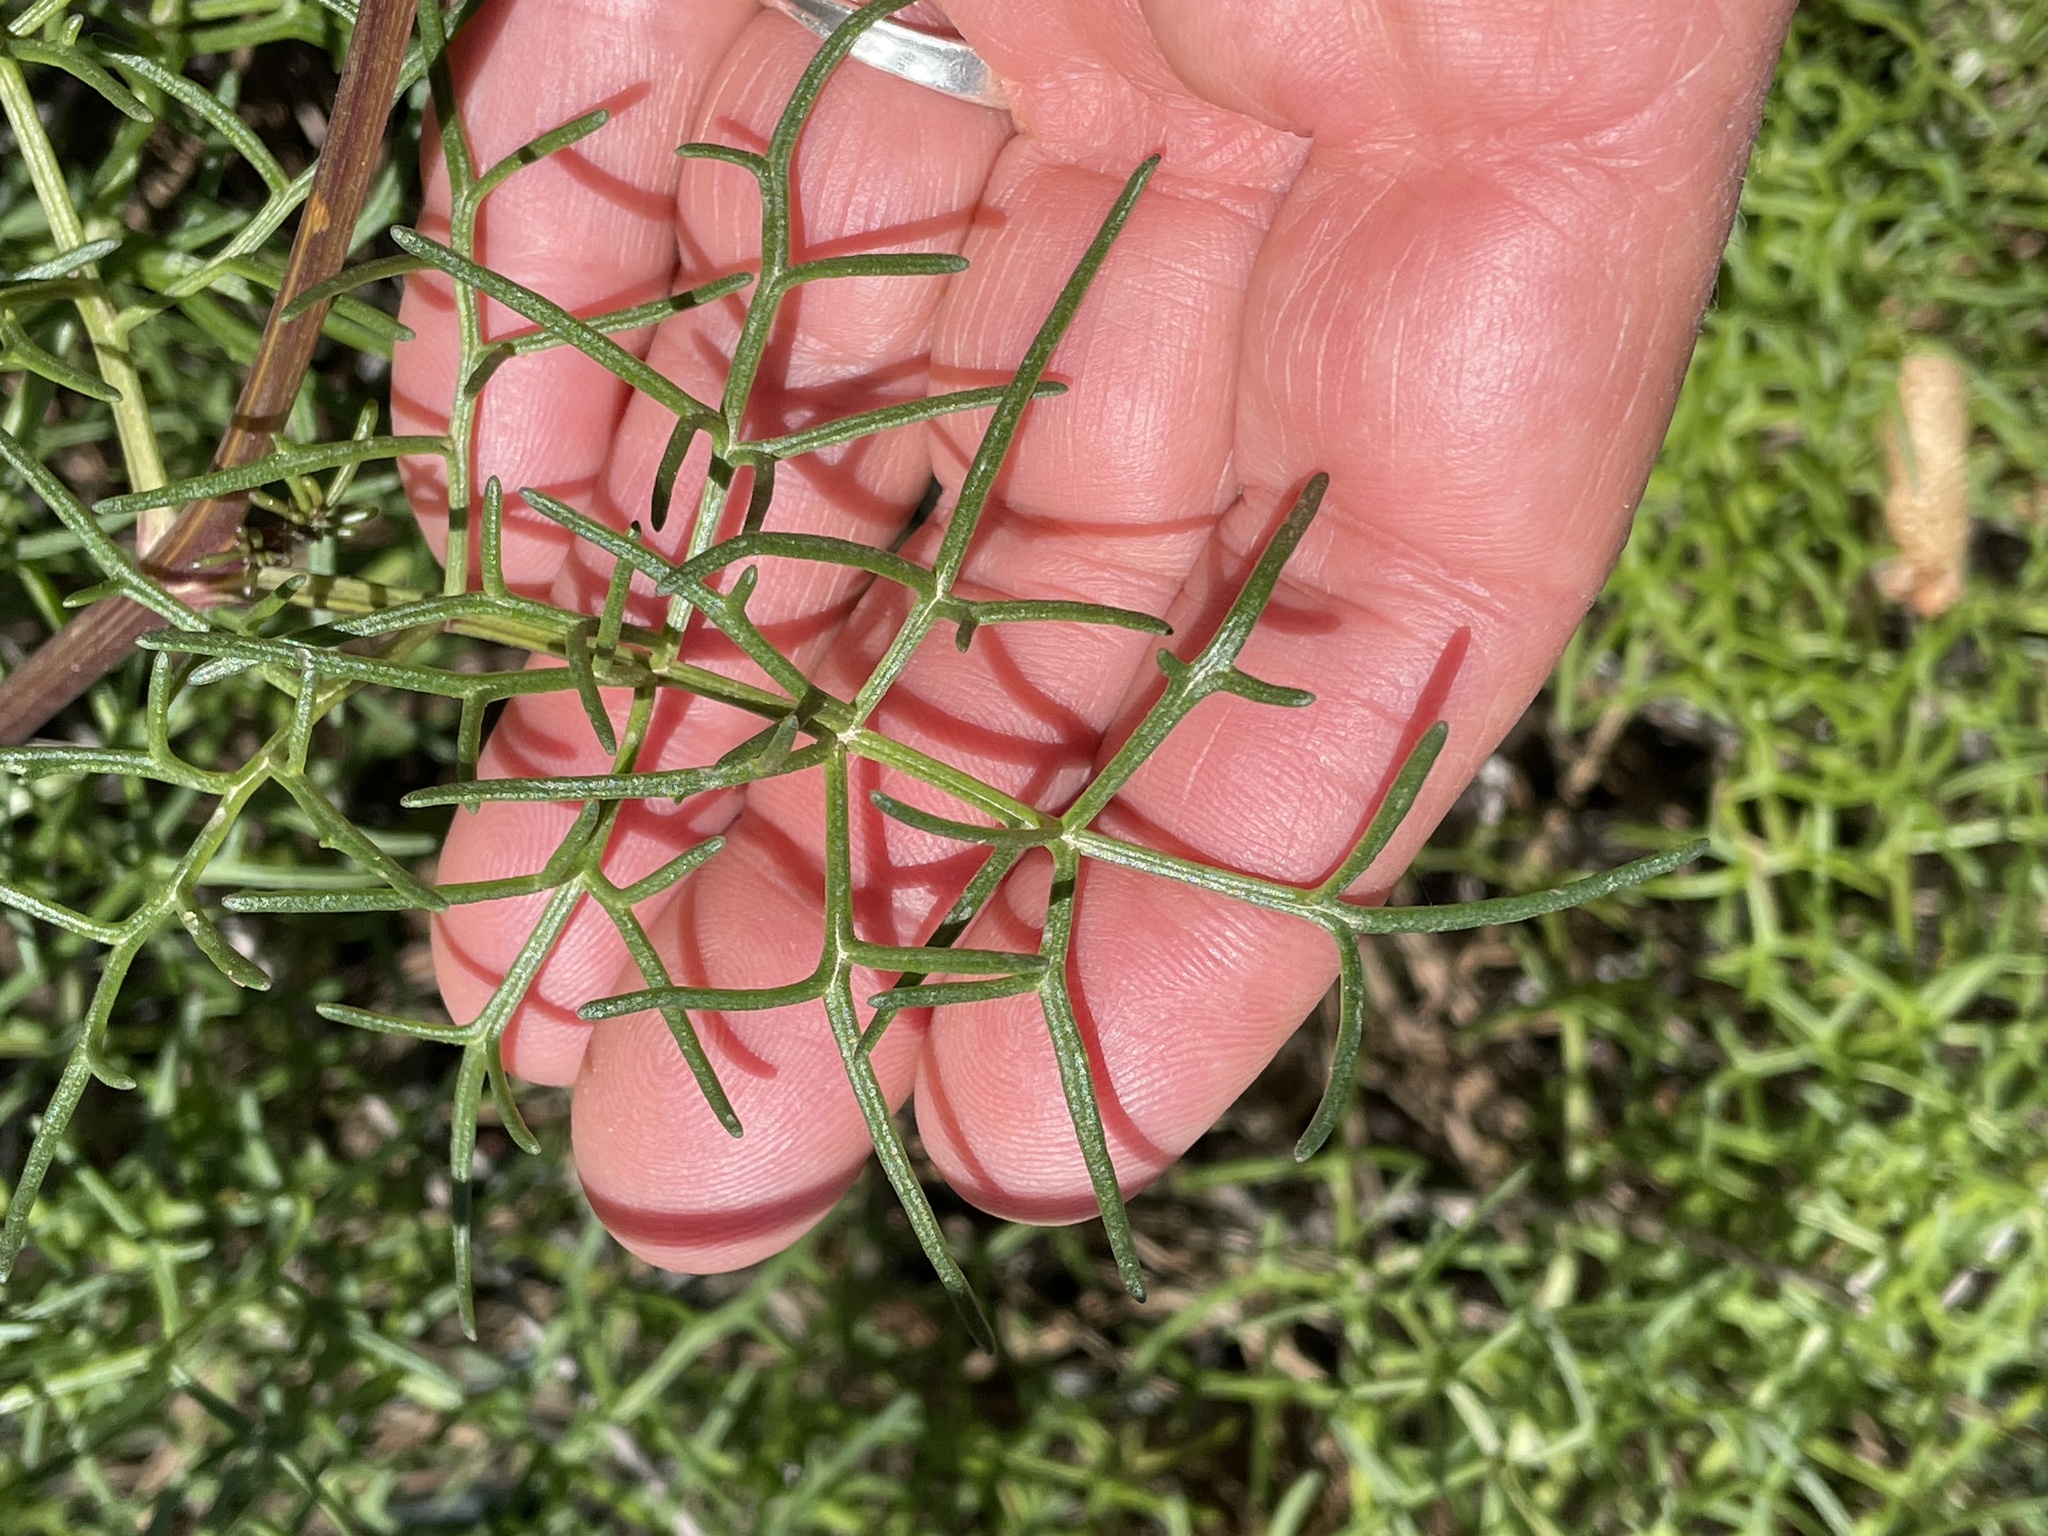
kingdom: Plantae
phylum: Tracheophyta
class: Magnoliopsida
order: Asterales
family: Asteraceae
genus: Coreopsis
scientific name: Coreopsis maritima
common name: Sea-dahlia
